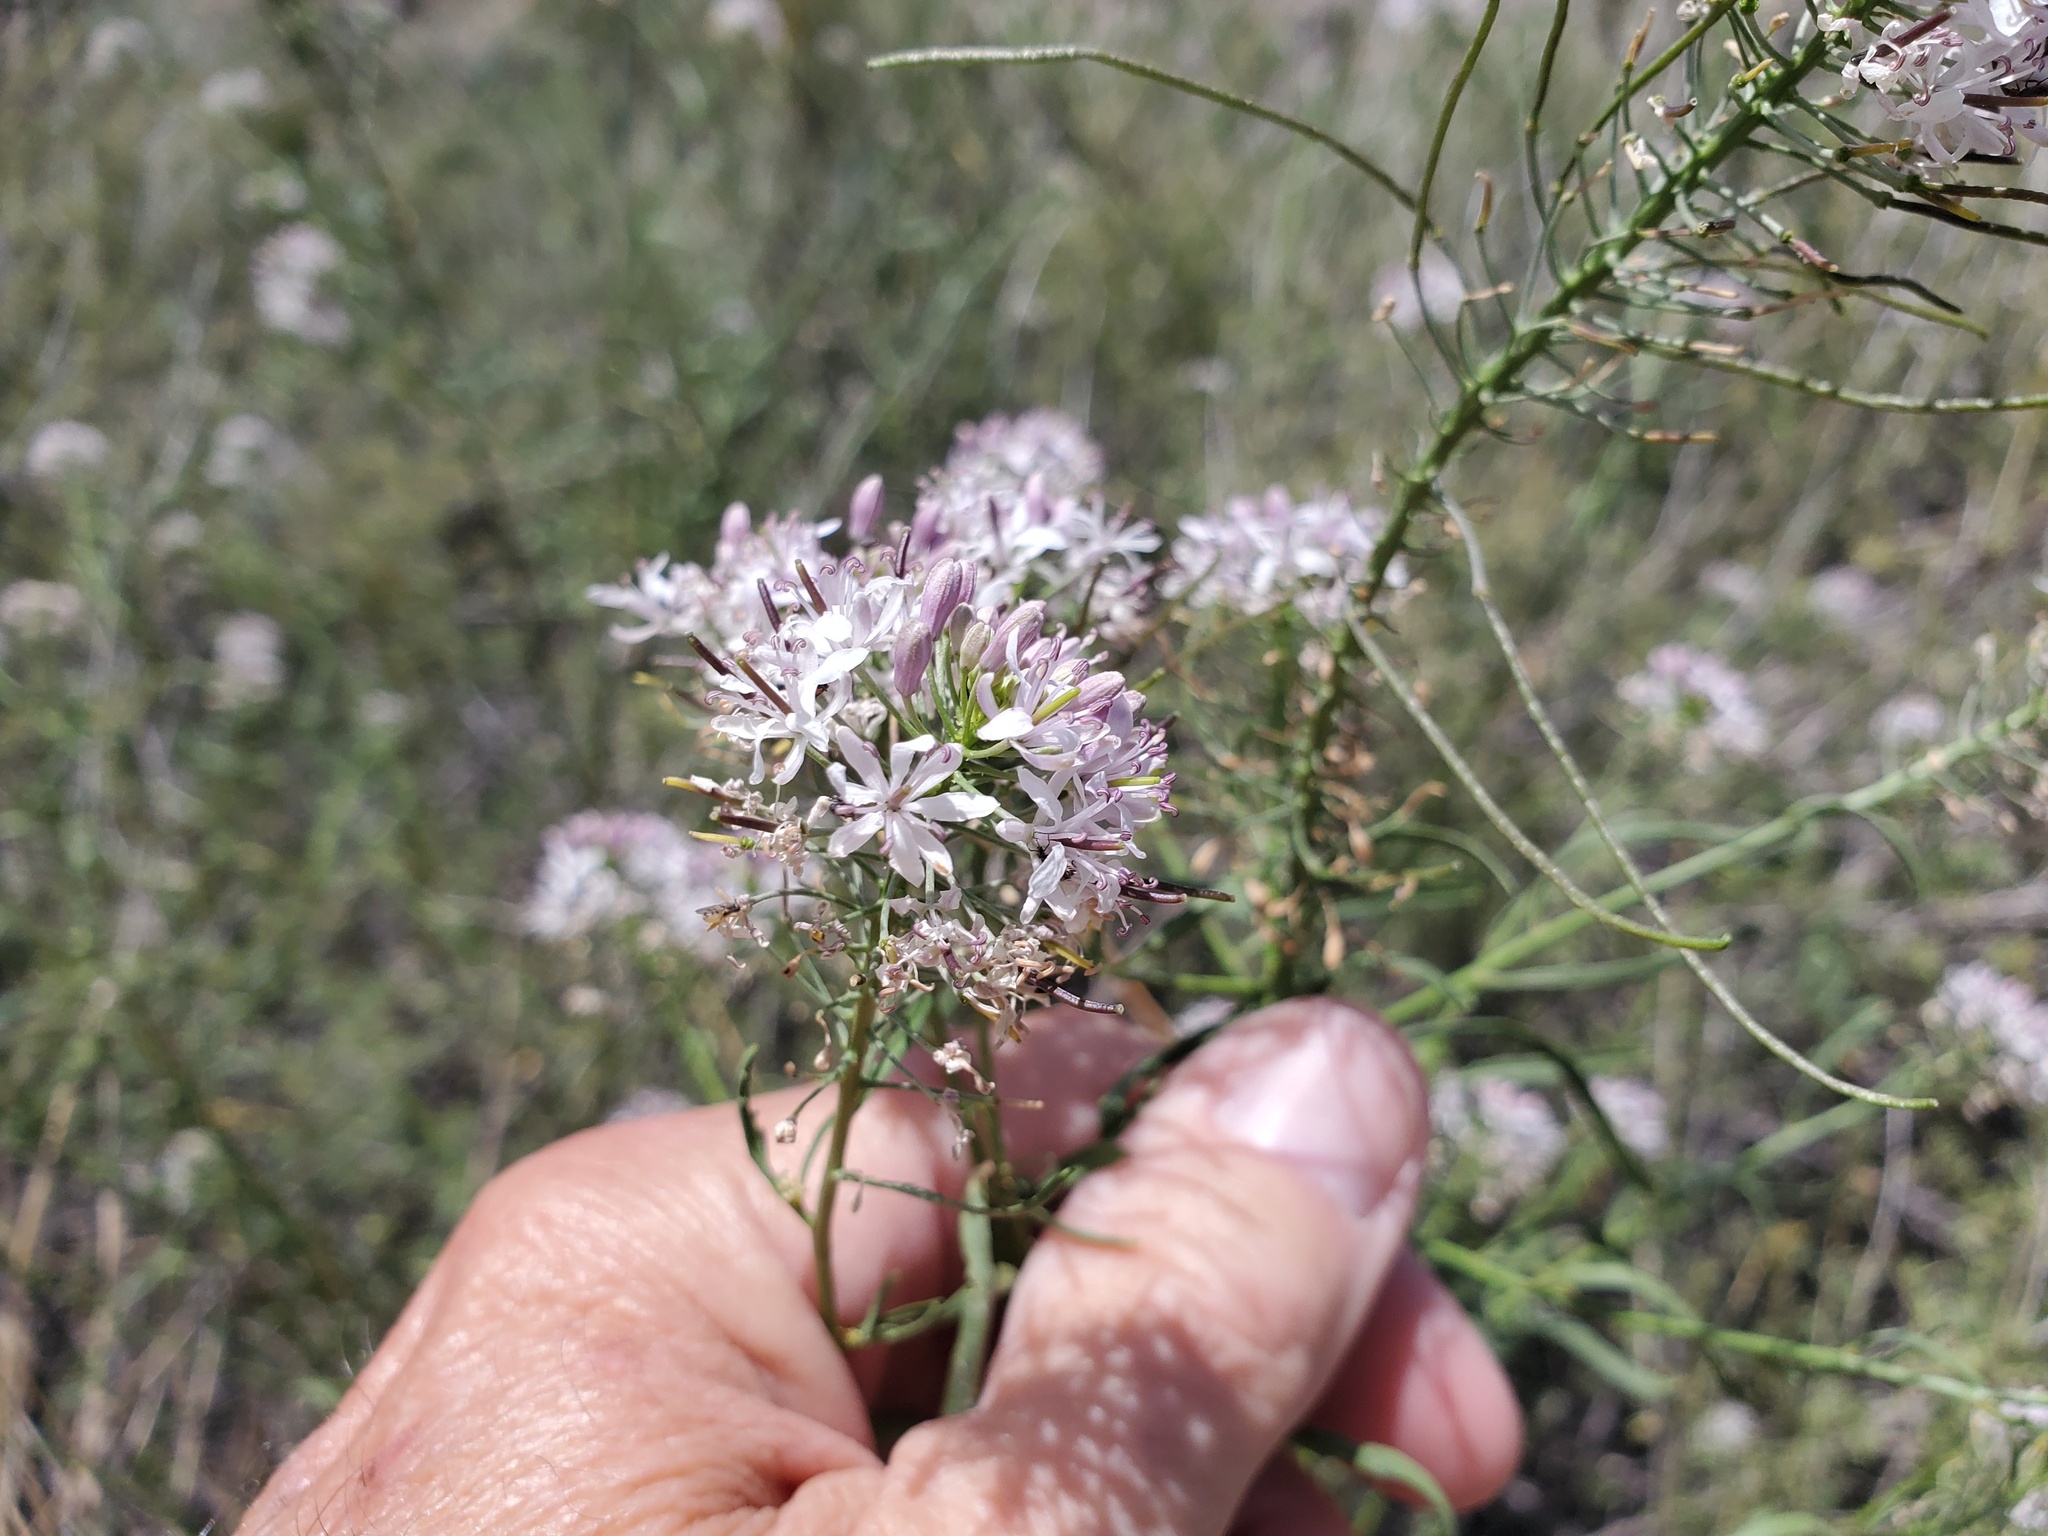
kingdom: Plantae
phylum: Tracheophyta
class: Magnoliopsida
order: Brassicales
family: Brassicaceae
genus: Thelypodium
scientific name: Thelypodium wrightii
